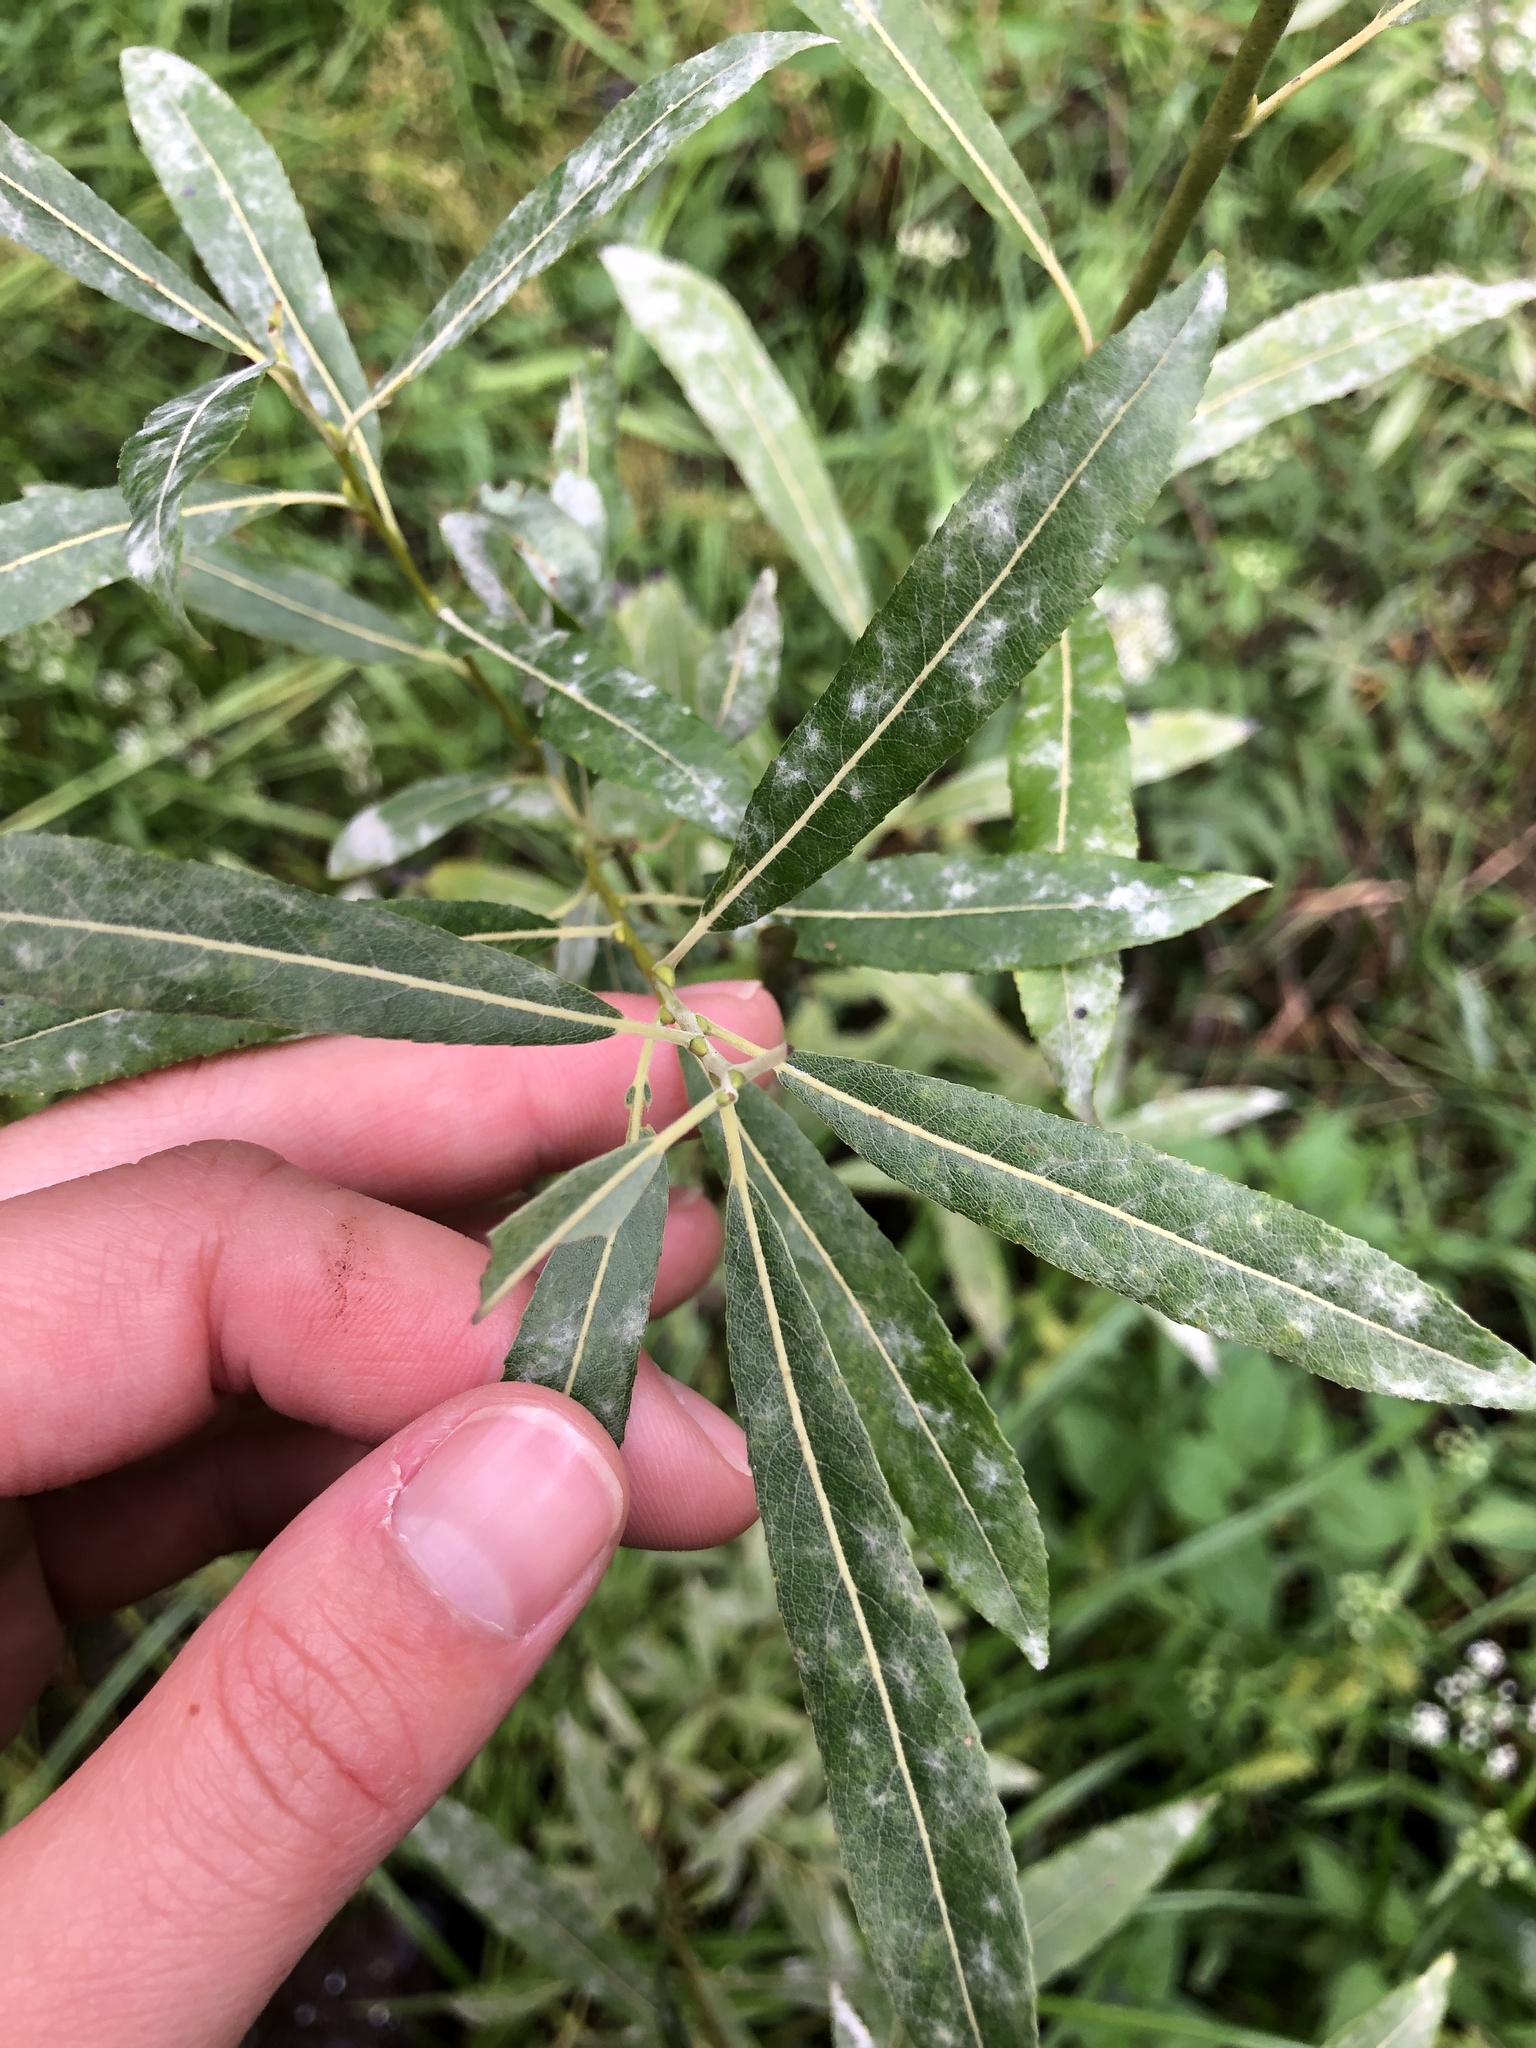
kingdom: Plantae
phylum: Tracheophyta
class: Magnoliopsida
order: Malpighiales
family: Salicaceae
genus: Salix
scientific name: Salix petiolaris
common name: Slender willow
